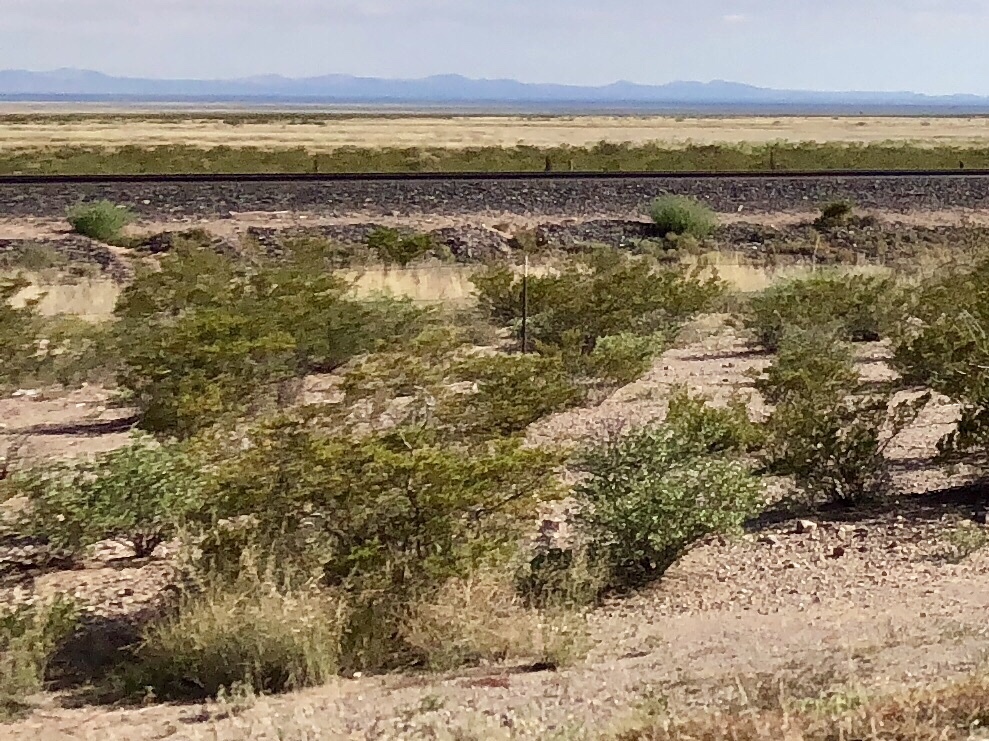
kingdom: Plantae
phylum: Tracheophyta
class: Magnoliopsida
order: Zygophyllales
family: Zygophyllaceae
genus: Larrea
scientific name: Larrea tridentata
